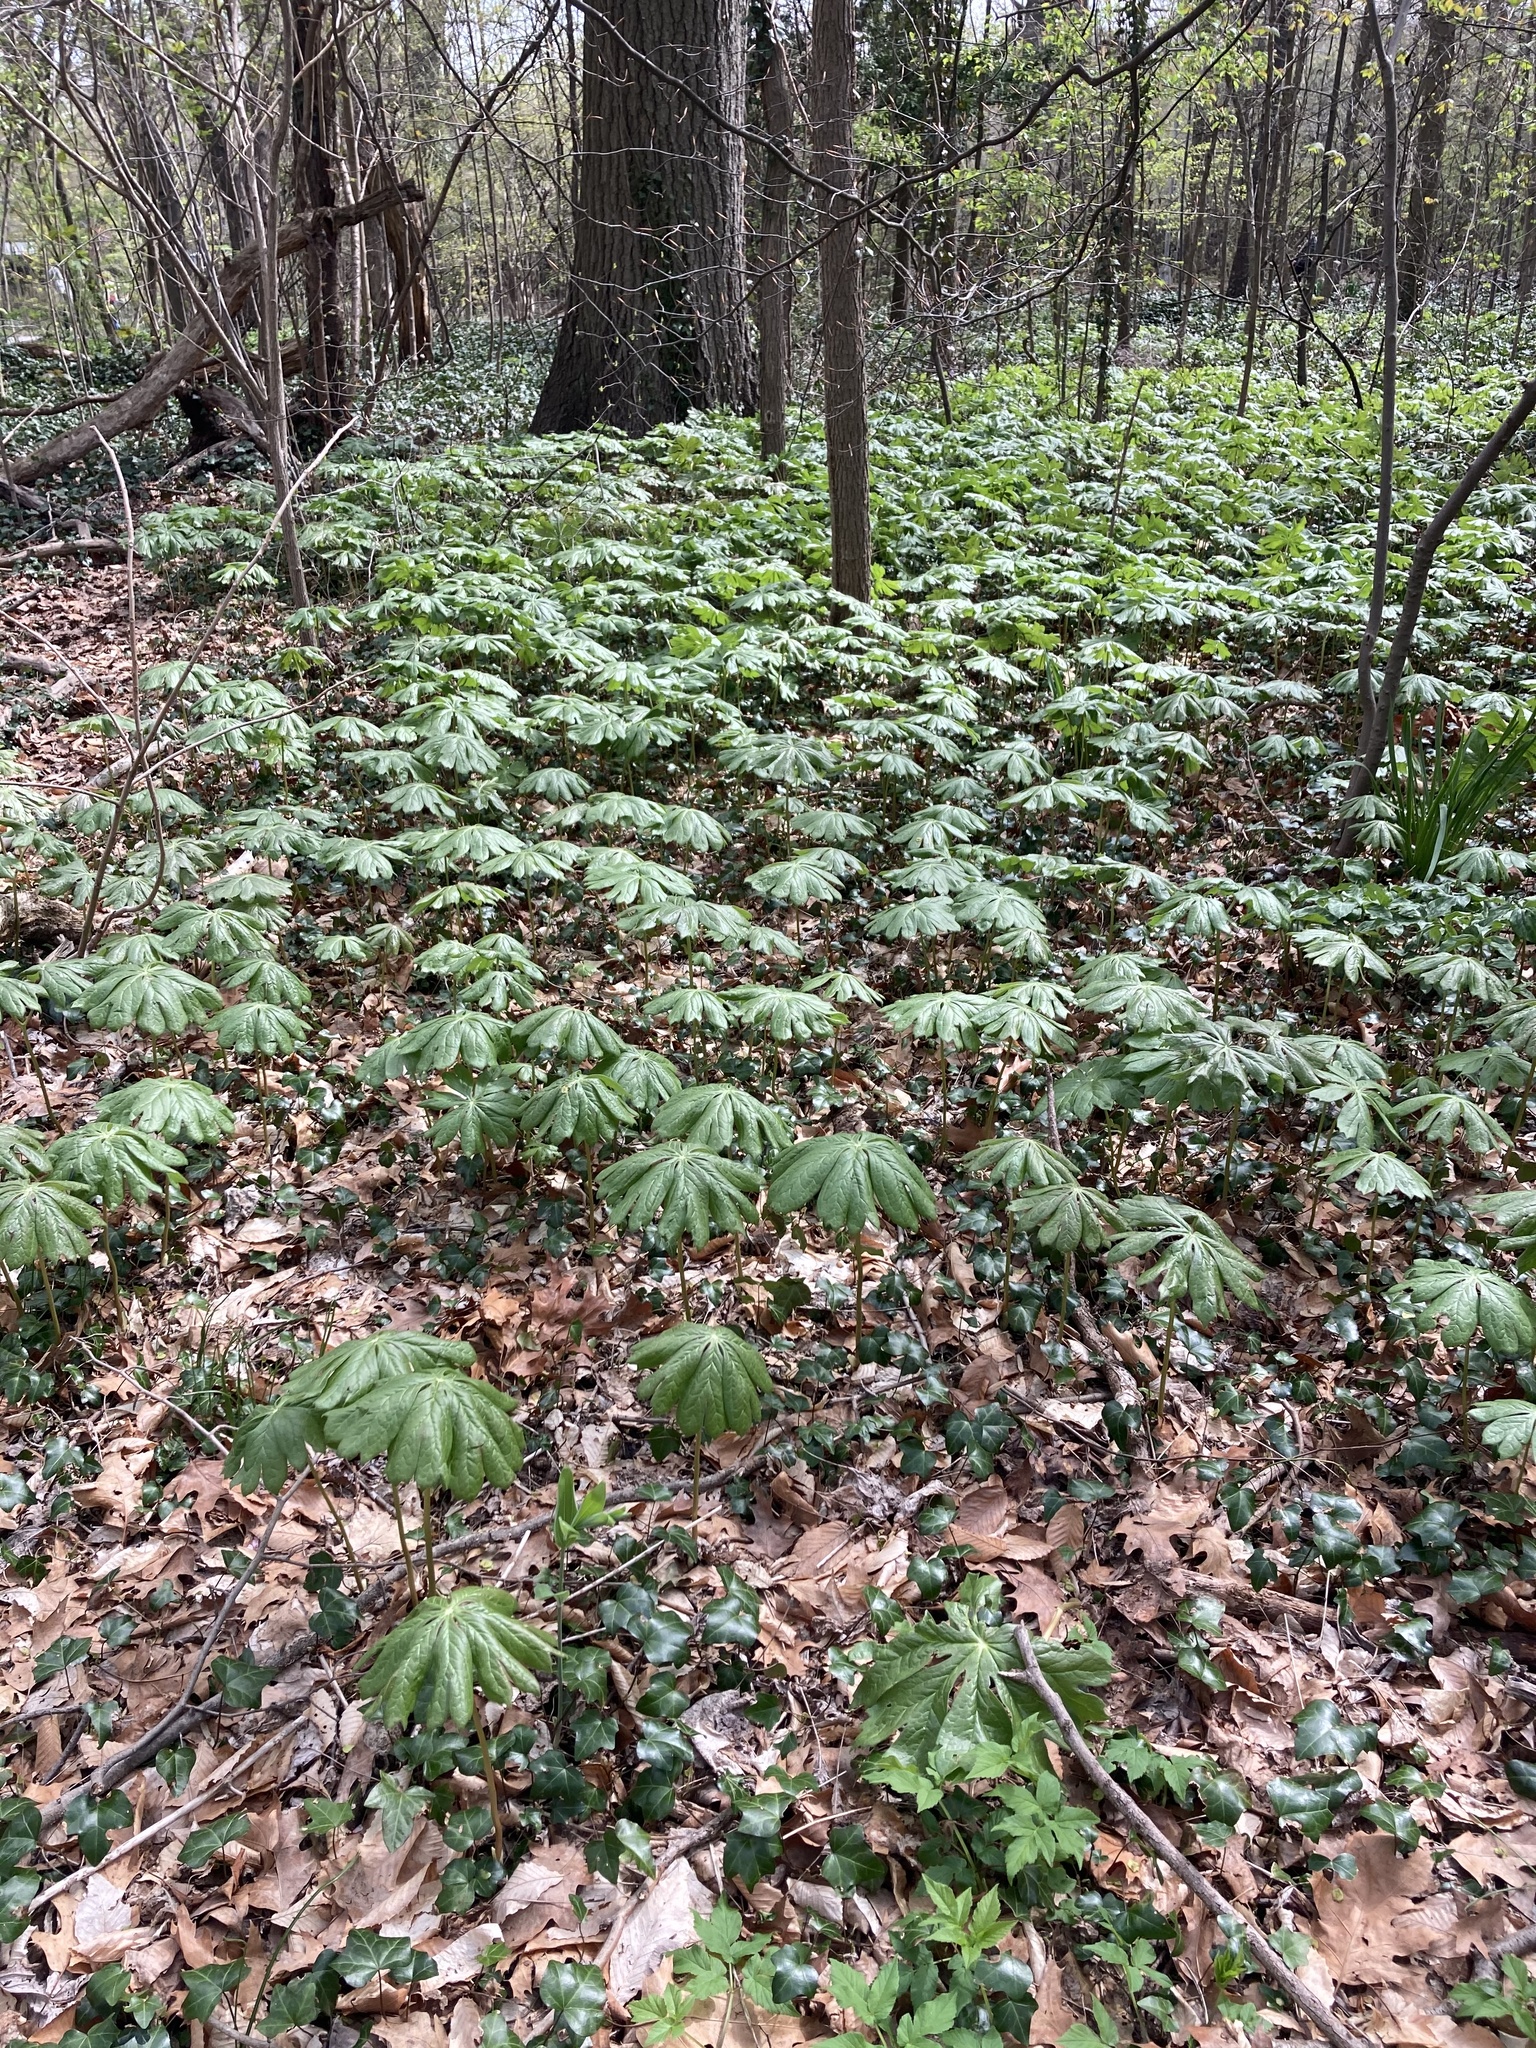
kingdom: Plantae
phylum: Tracheophyta
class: Magnoliopsida
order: Ranunculales
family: Berberidaceae
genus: Podophyllum
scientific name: Podophyllum peltatum
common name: Wild mandrake
